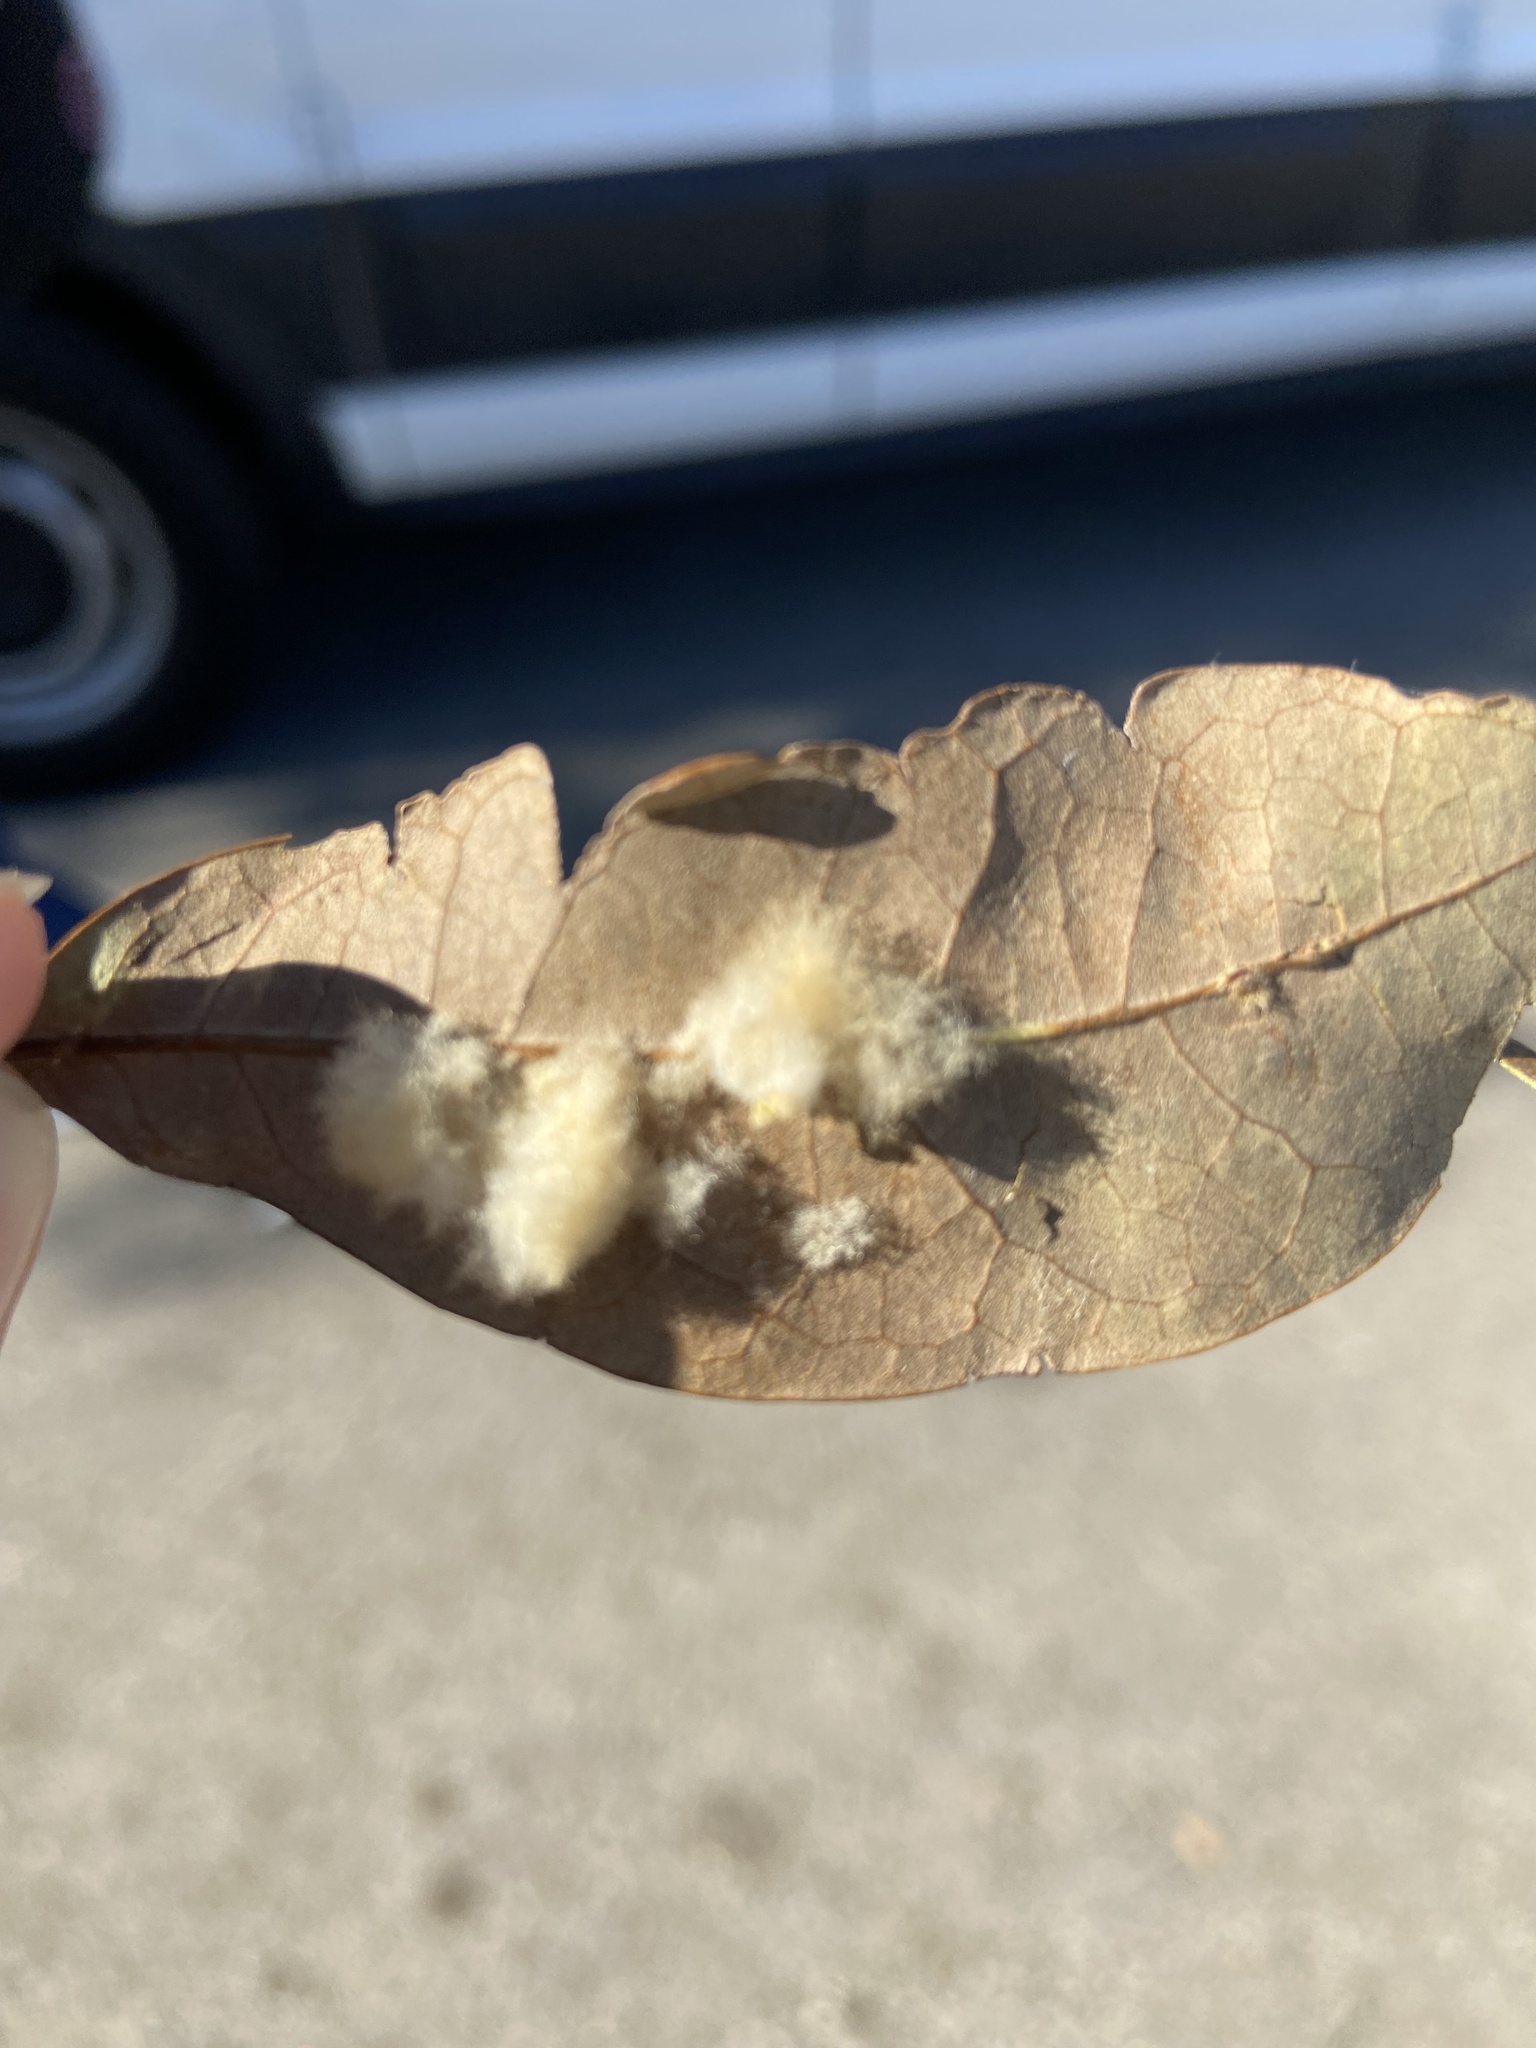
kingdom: Animalia
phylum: Arthropoda
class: Insecta
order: Hymenoptera
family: Cynipidae
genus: Andricus
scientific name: Andricus Druon quercuslanigerum
